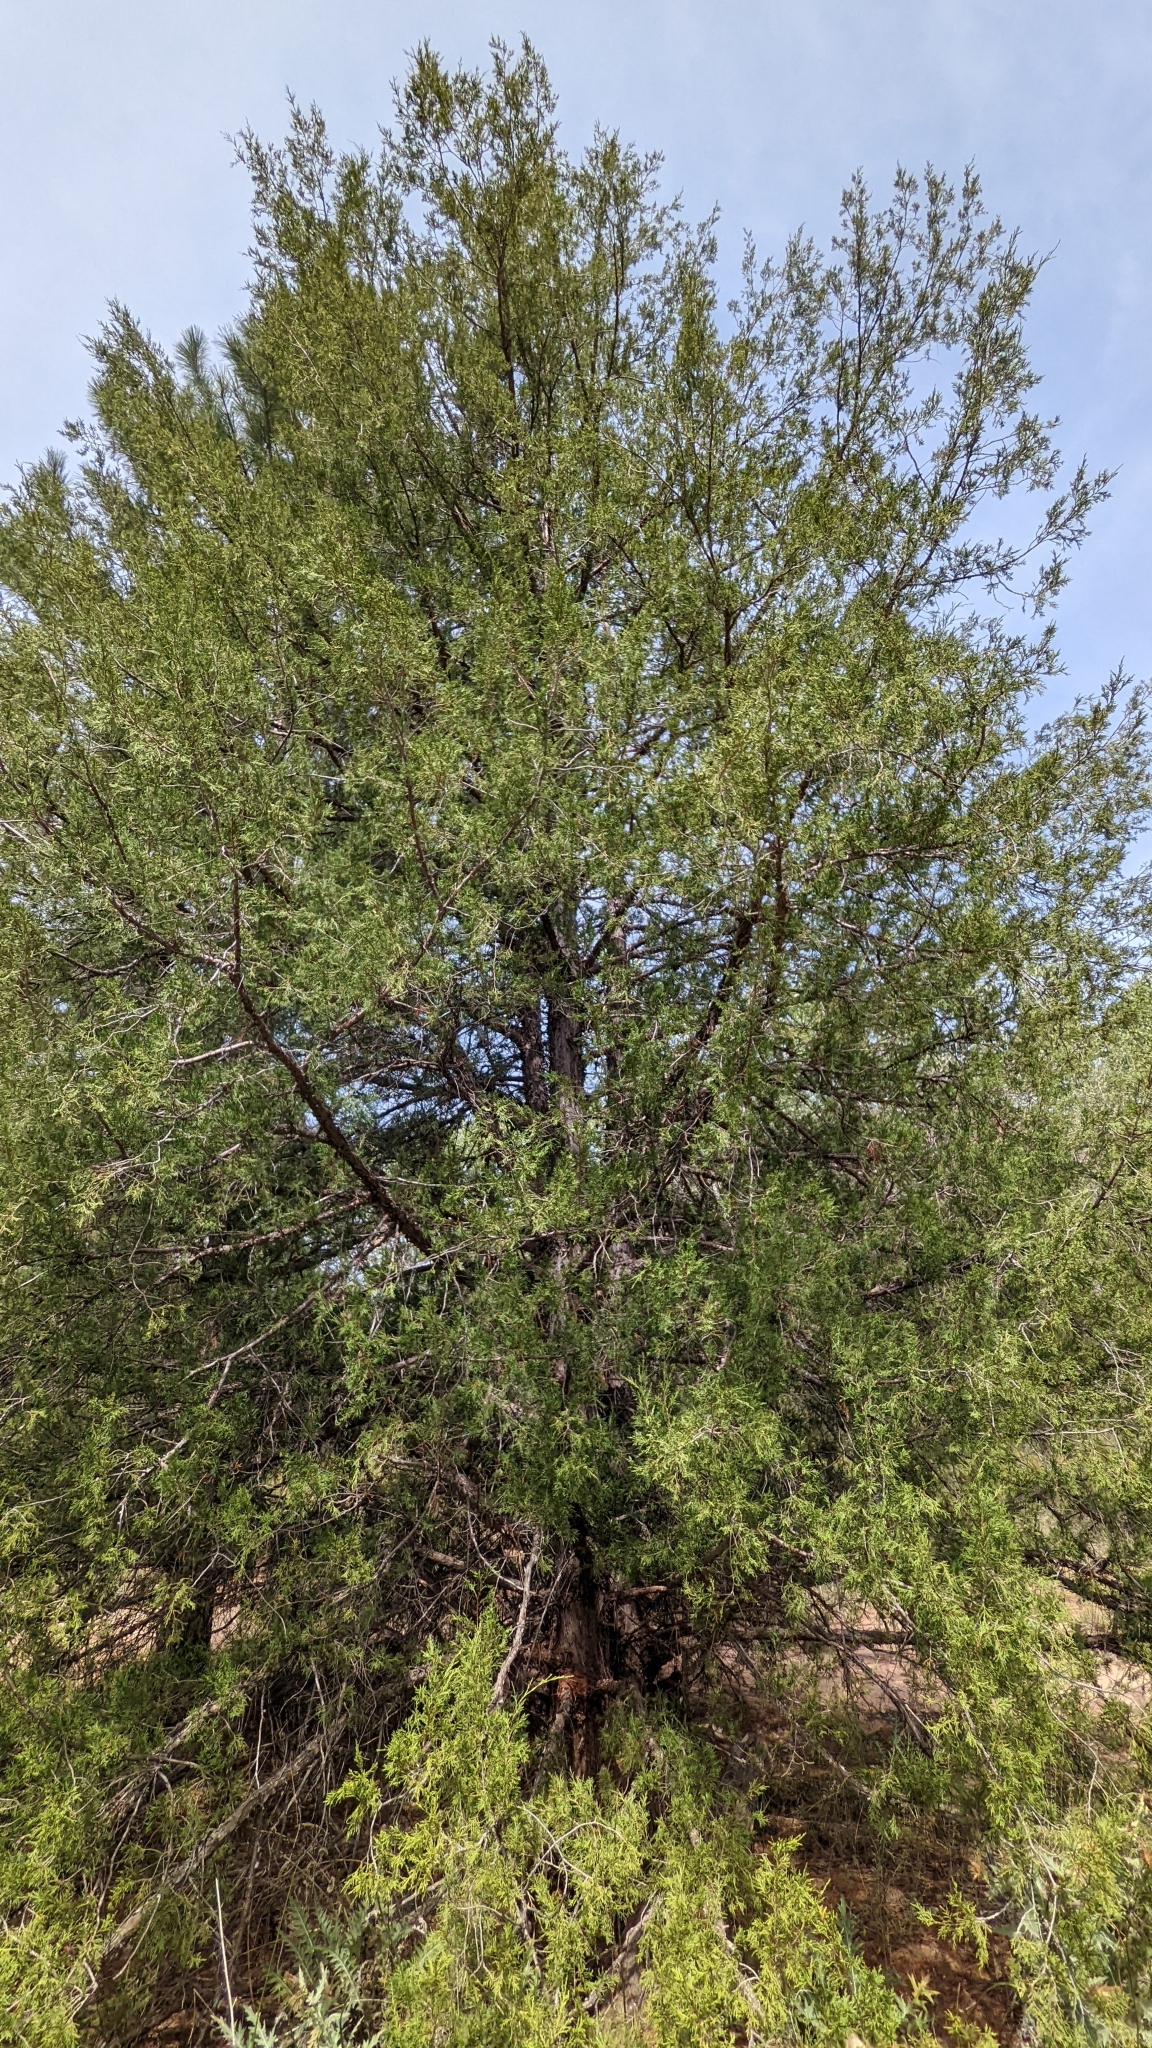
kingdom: Plantae
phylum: Tracheophyta
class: Pinopsida
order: Pinales
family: Cupressaceae
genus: Juniperus
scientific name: Juniperus osteosperma
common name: Utah juniper
